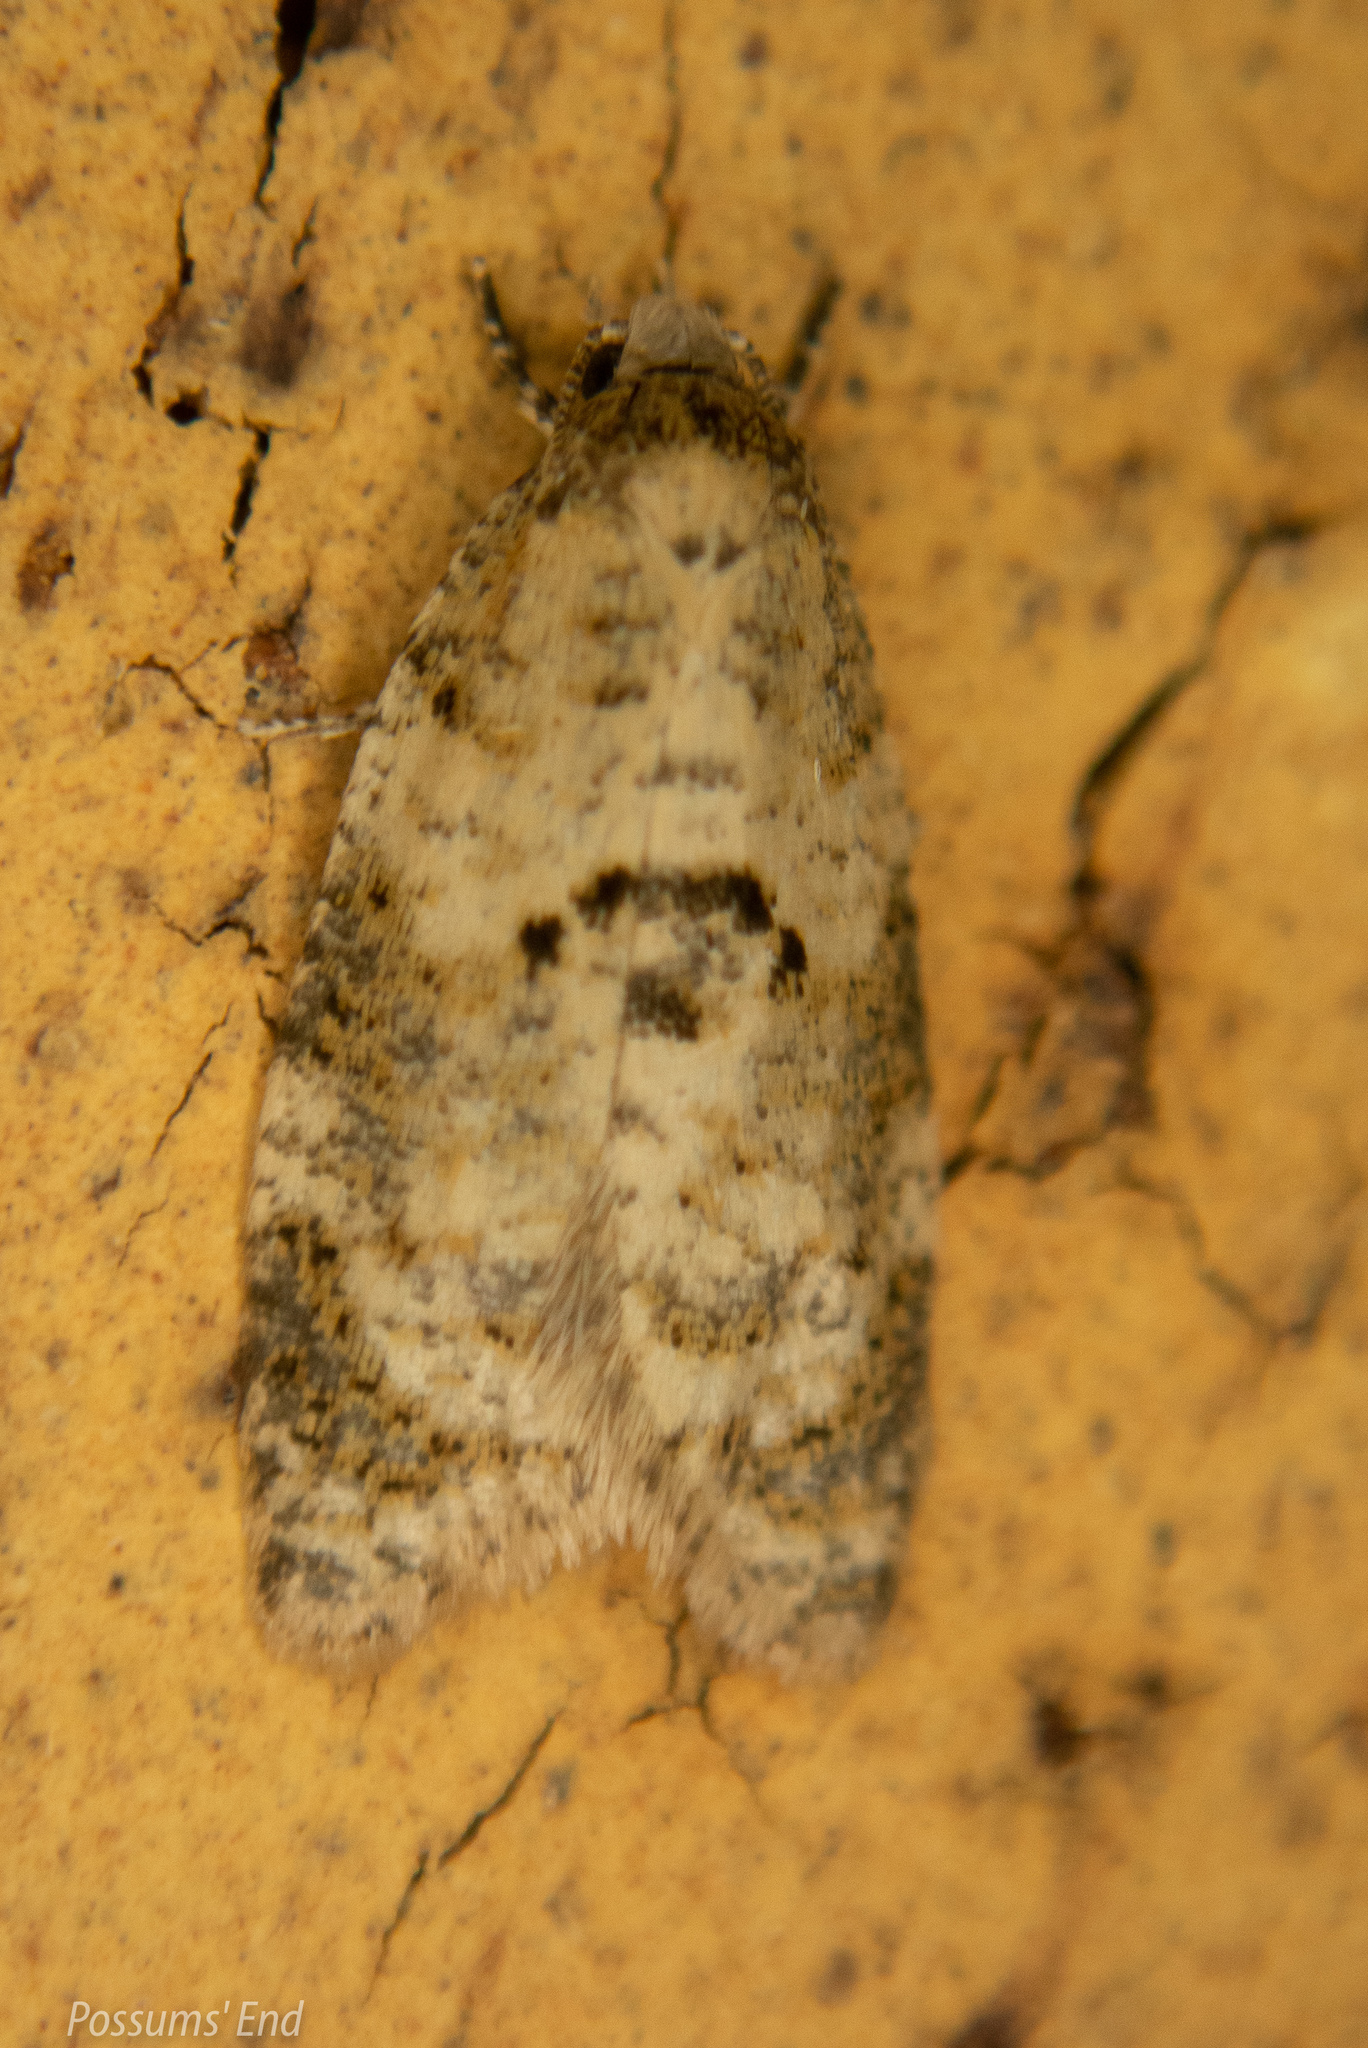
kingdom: Animalia
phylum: Arthropoda
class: Insecta
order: Lepidoptera
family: Tortricidae
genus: Dipterina
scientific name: Dipterina imbriferana
